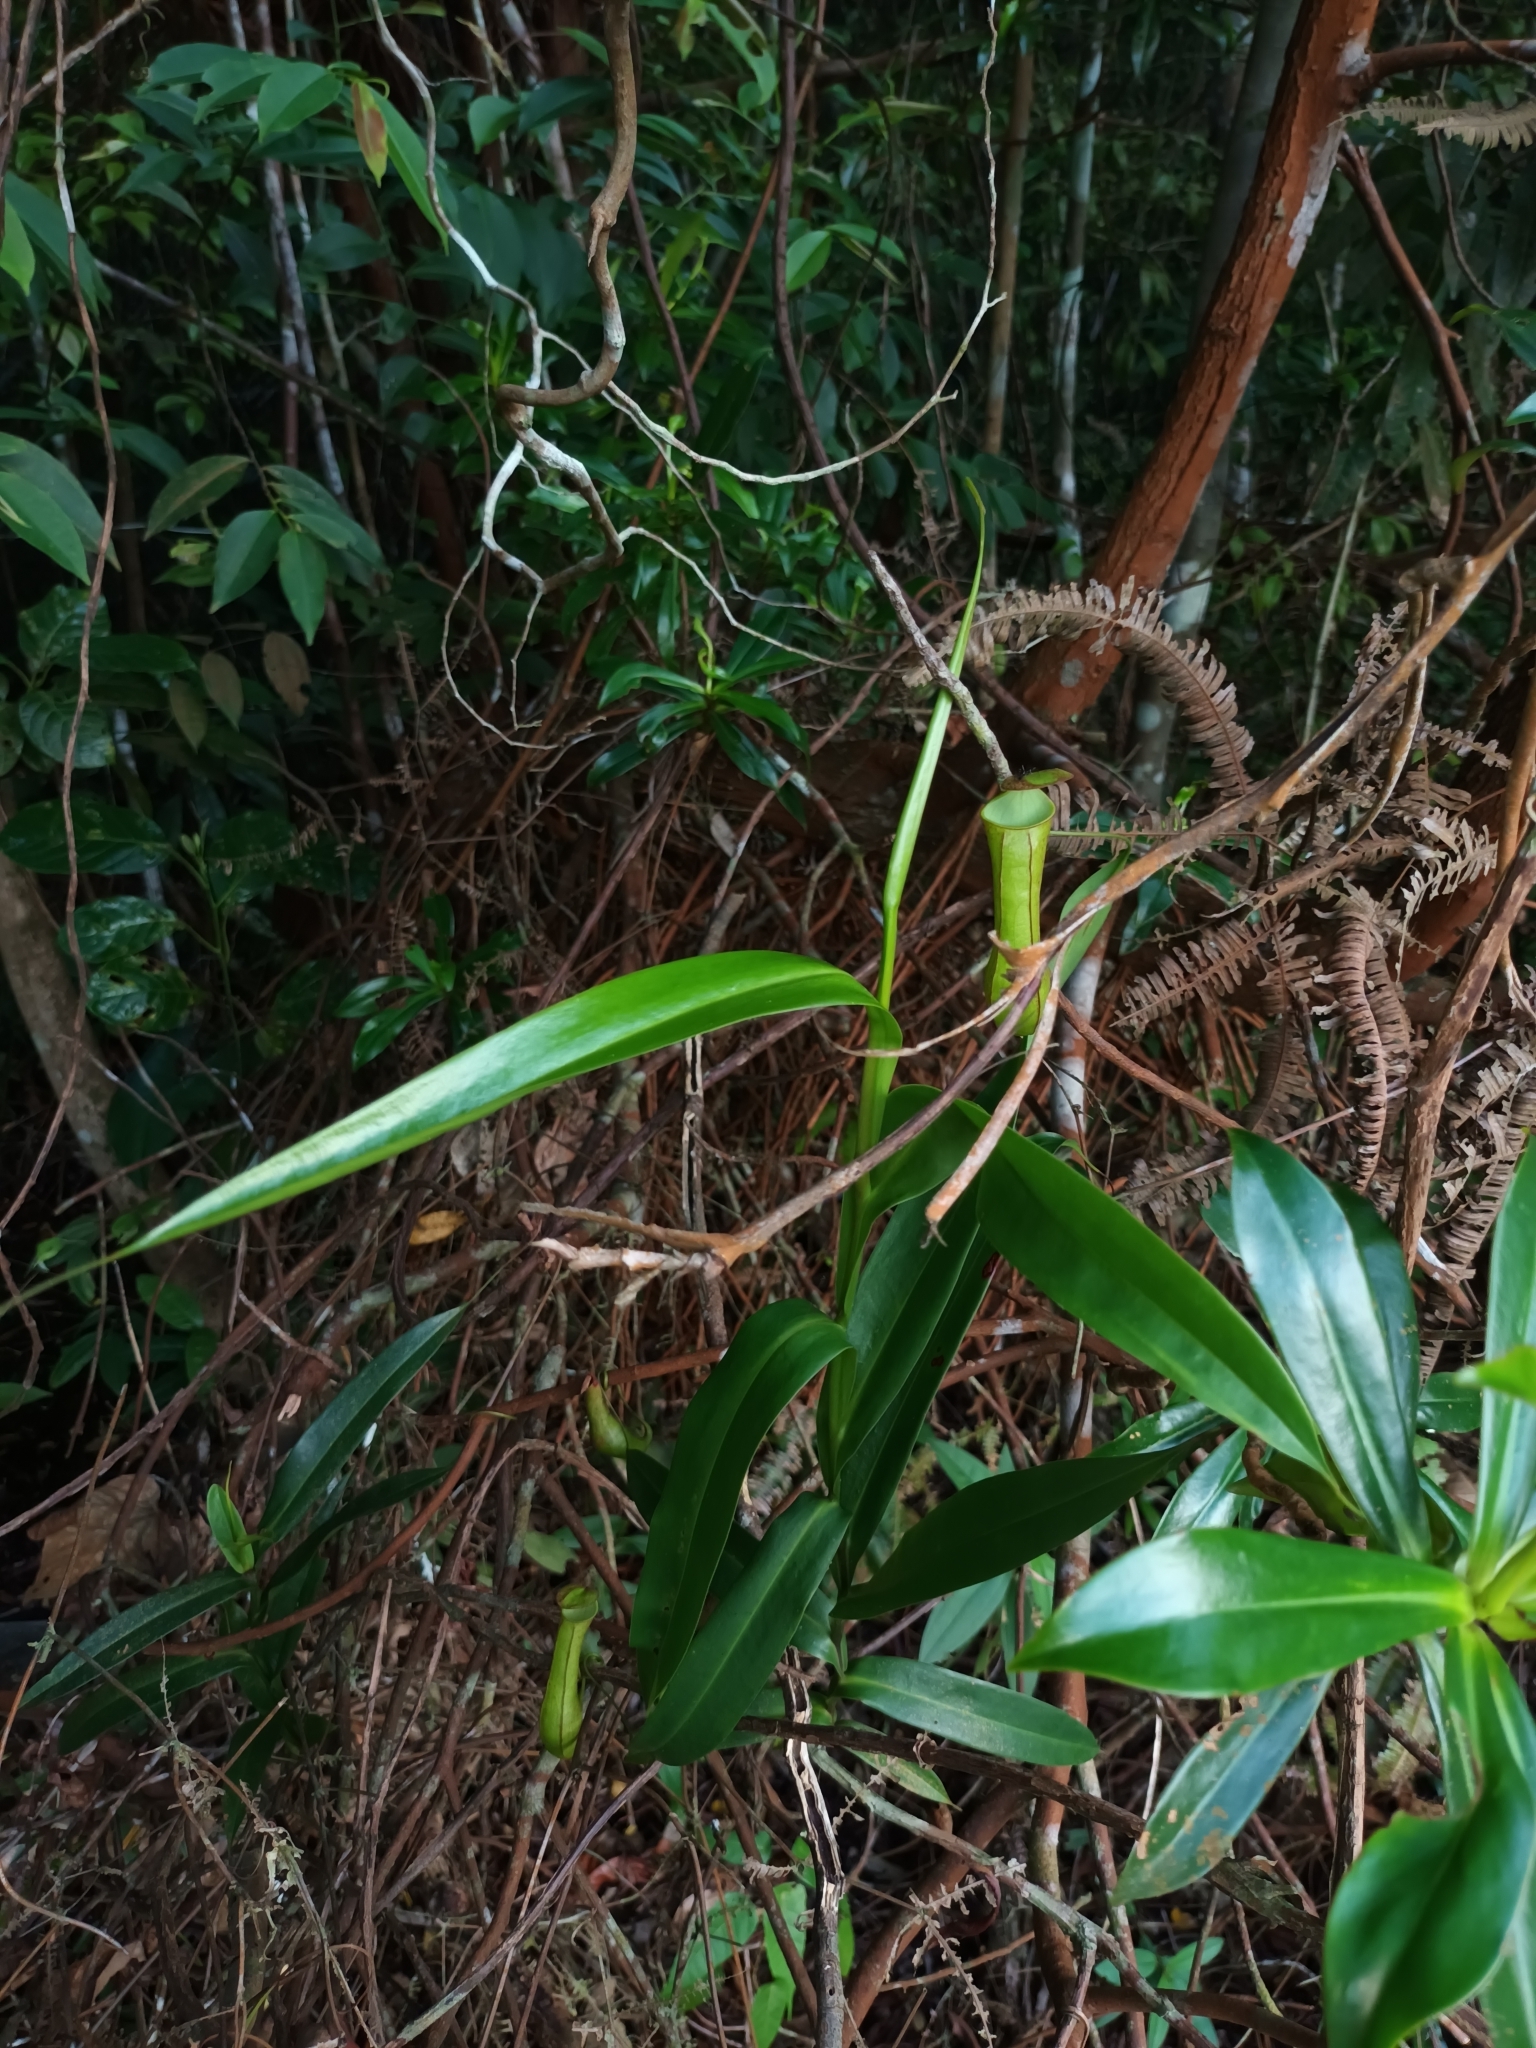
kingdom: Plantae
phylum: Tracheophyta
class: Magnoliopsida
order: Caryophyllales
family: Nepenthaceae
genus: Nepenthes
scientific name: Nepenthes gracilis
